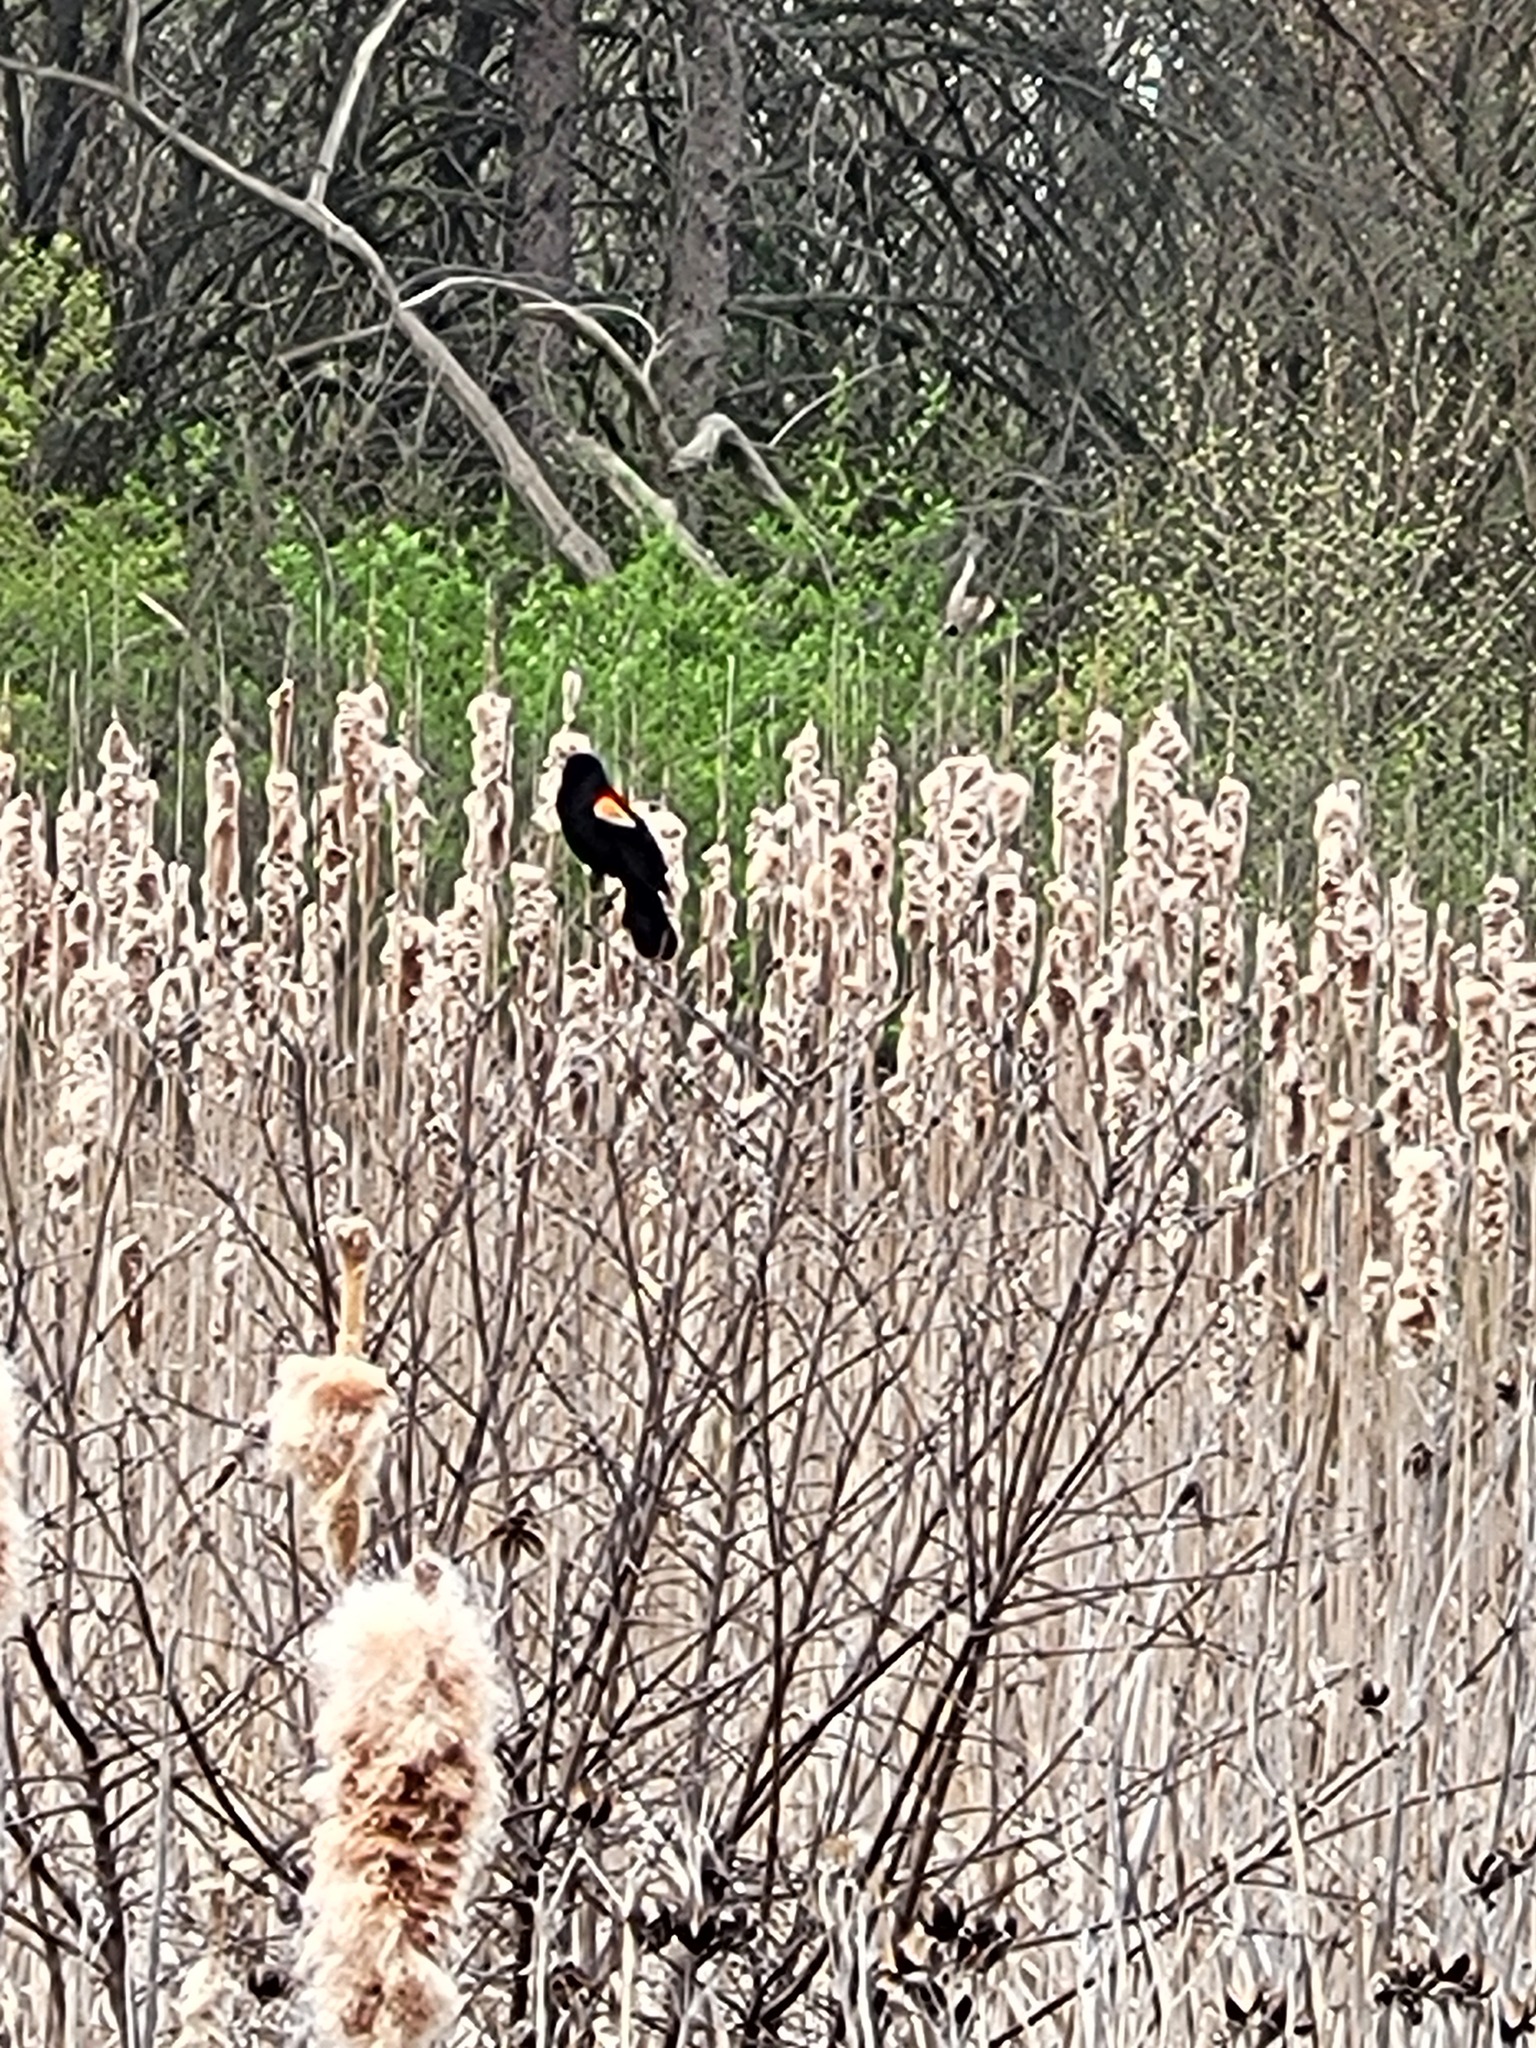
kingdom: Animalia
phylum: Chordata
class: Aves
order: Passeriformes
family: Icteridae
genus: Agelaius
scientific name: Agelaius phoeniceus
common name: Red-winged blackbird
